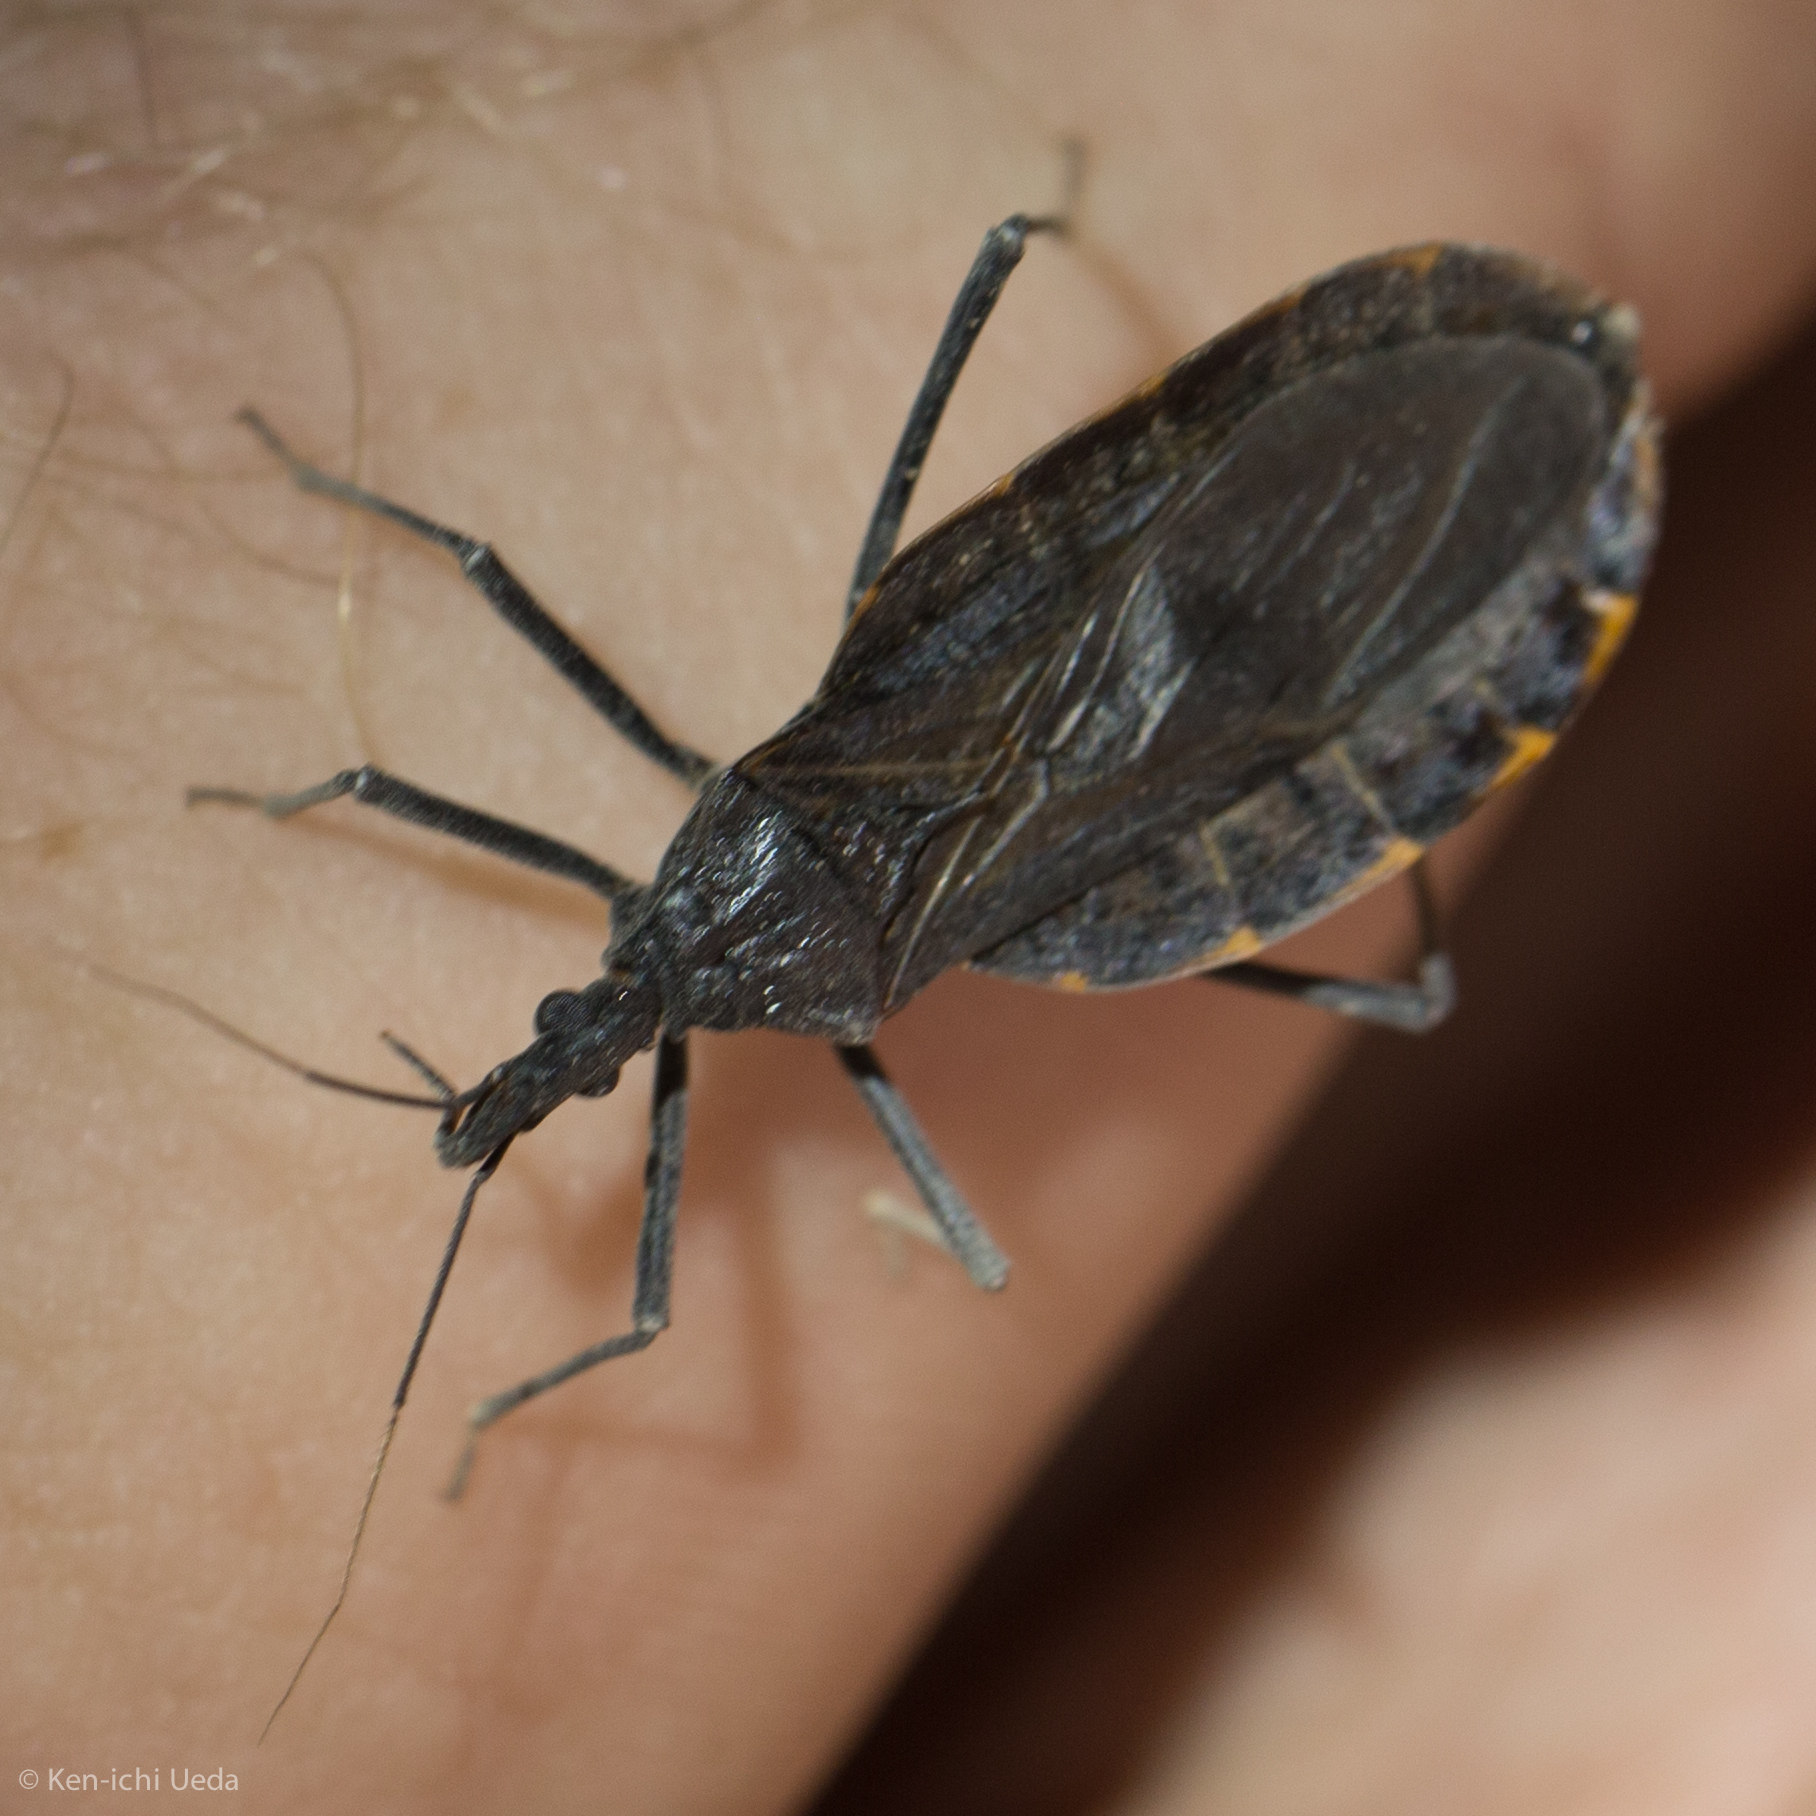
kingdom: Animalia
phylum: Arthropoda
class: Insecta
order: Hemiptera
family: Reduviidae
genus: Triatoma
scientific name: Triatoma recurva
